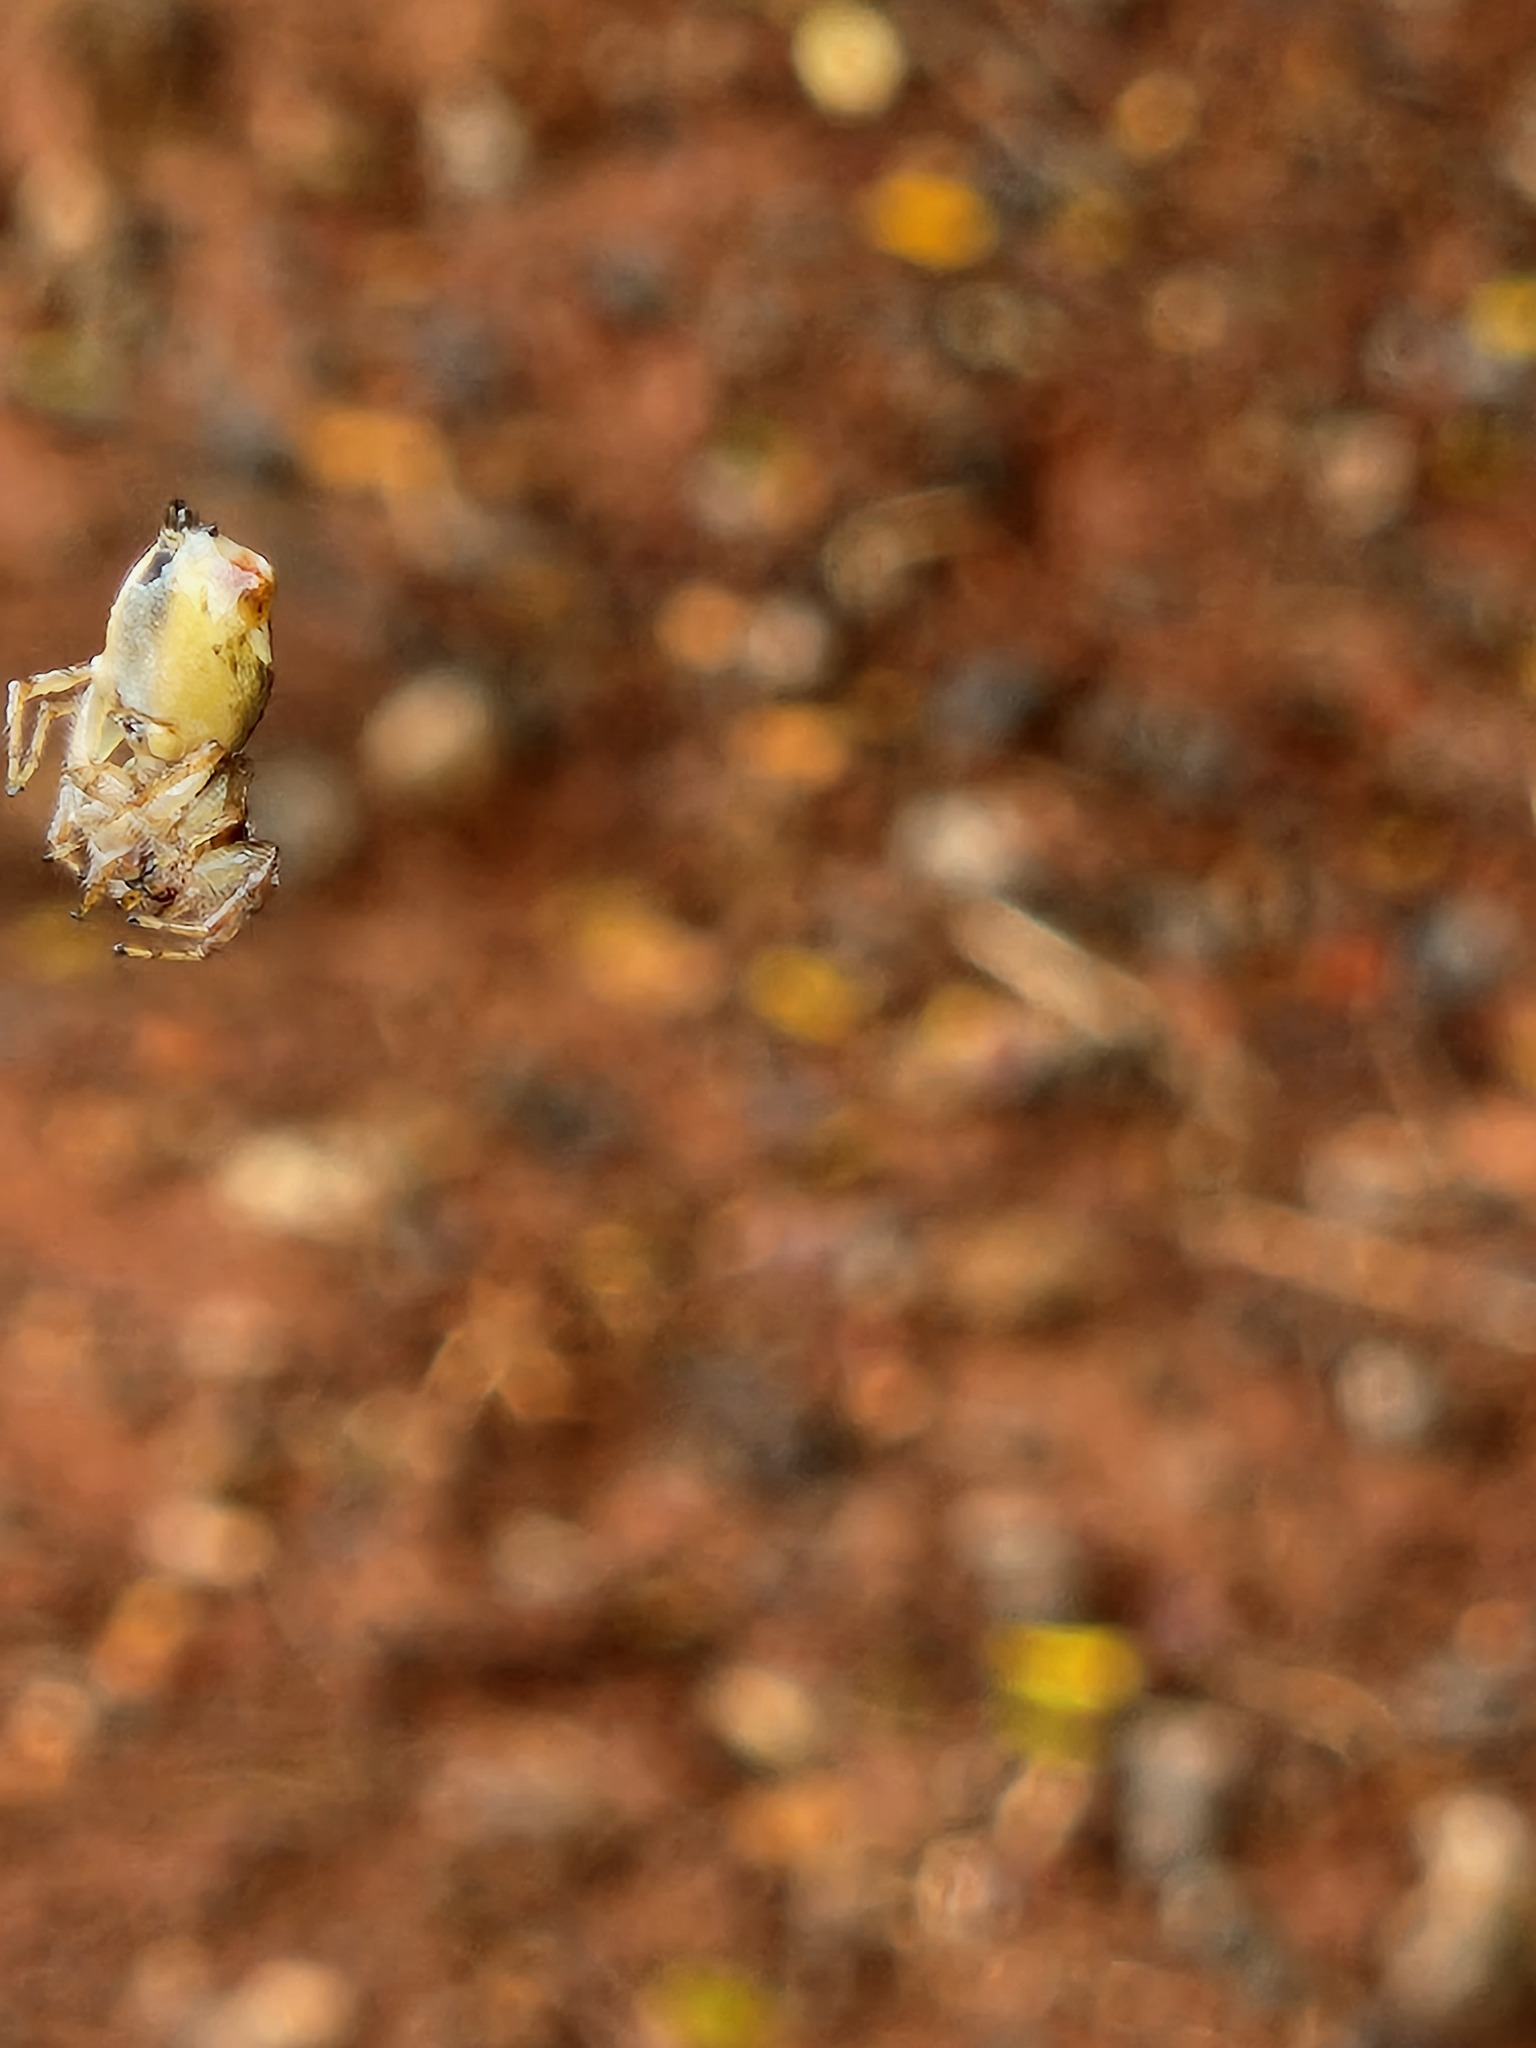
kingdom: Animalia
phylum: Arthropoda
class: Arachnida
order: Araneae
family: Salticidae
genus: Frigga
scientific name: Frigga quintensis
